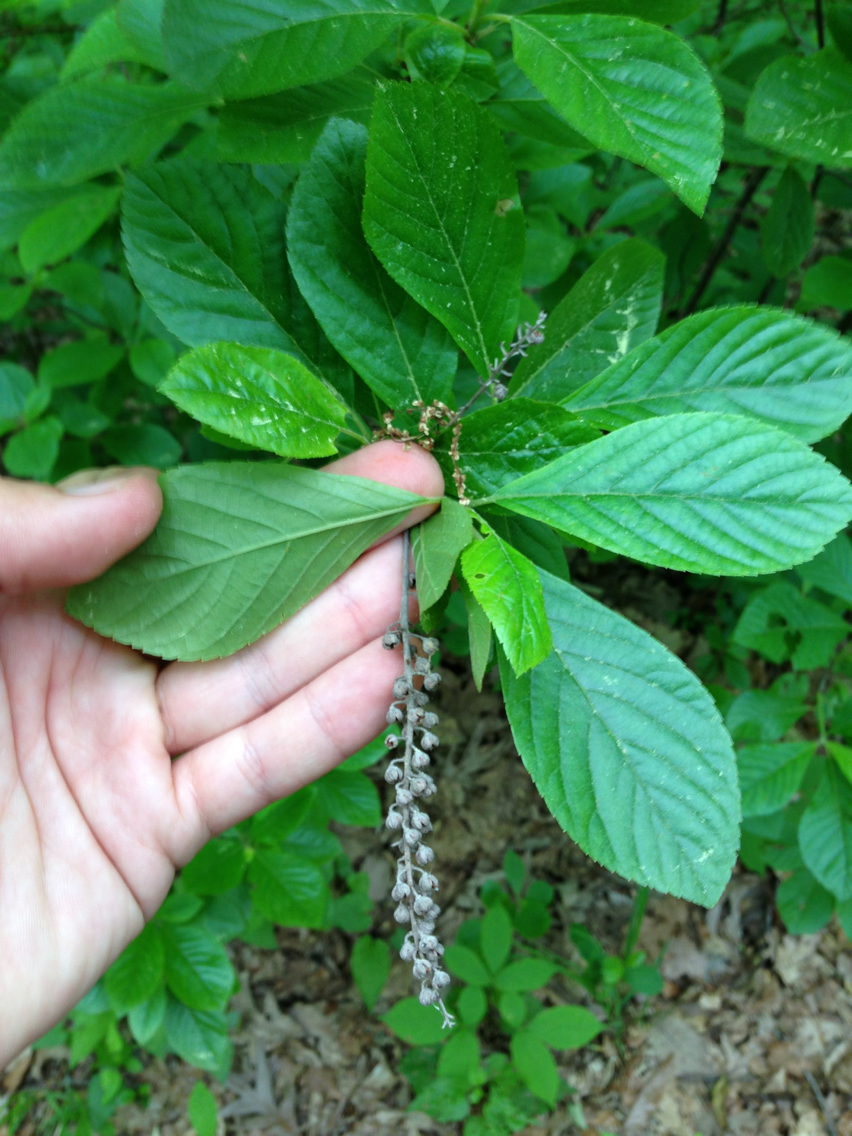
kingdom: Plantae
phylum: Tracheophyta
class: Magnoliopsida
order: Ericales
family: Clethraceae
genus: Clethra
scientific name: Clethra alnifolia
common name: Sweet pepperbush
